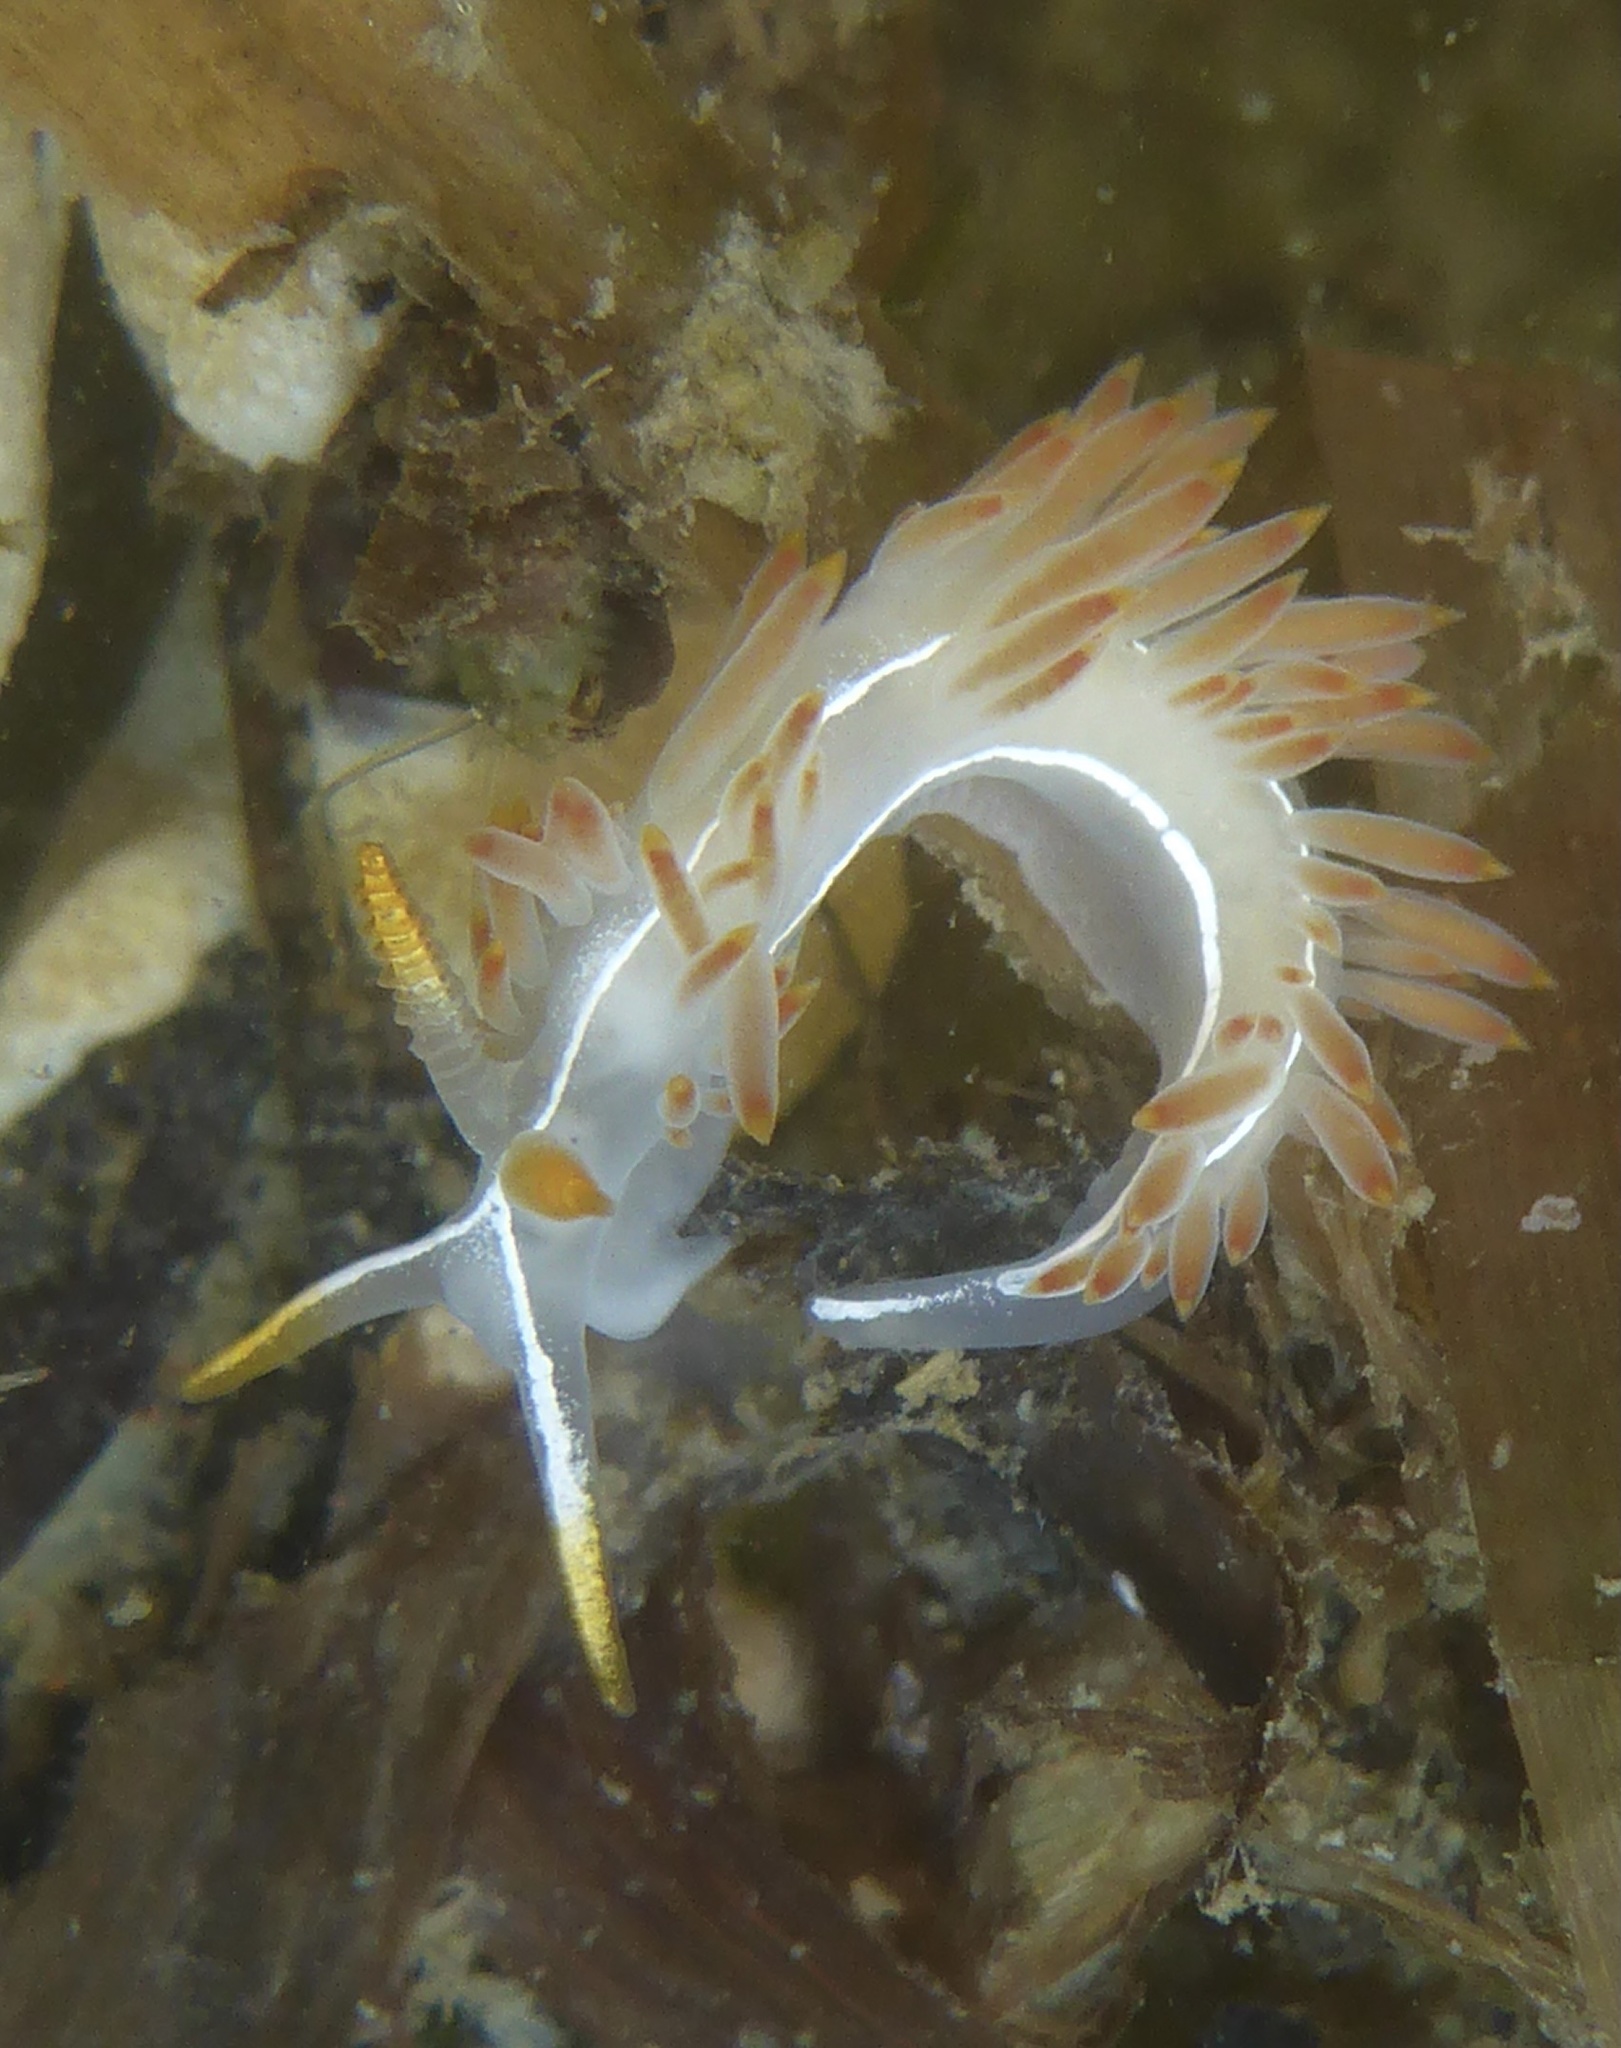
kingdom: Animalia
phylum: Mollusca
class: Gastropoda
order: Nudibranchia
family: Coryphellidae
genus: Coryphella
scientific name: Coryphella trilineata
